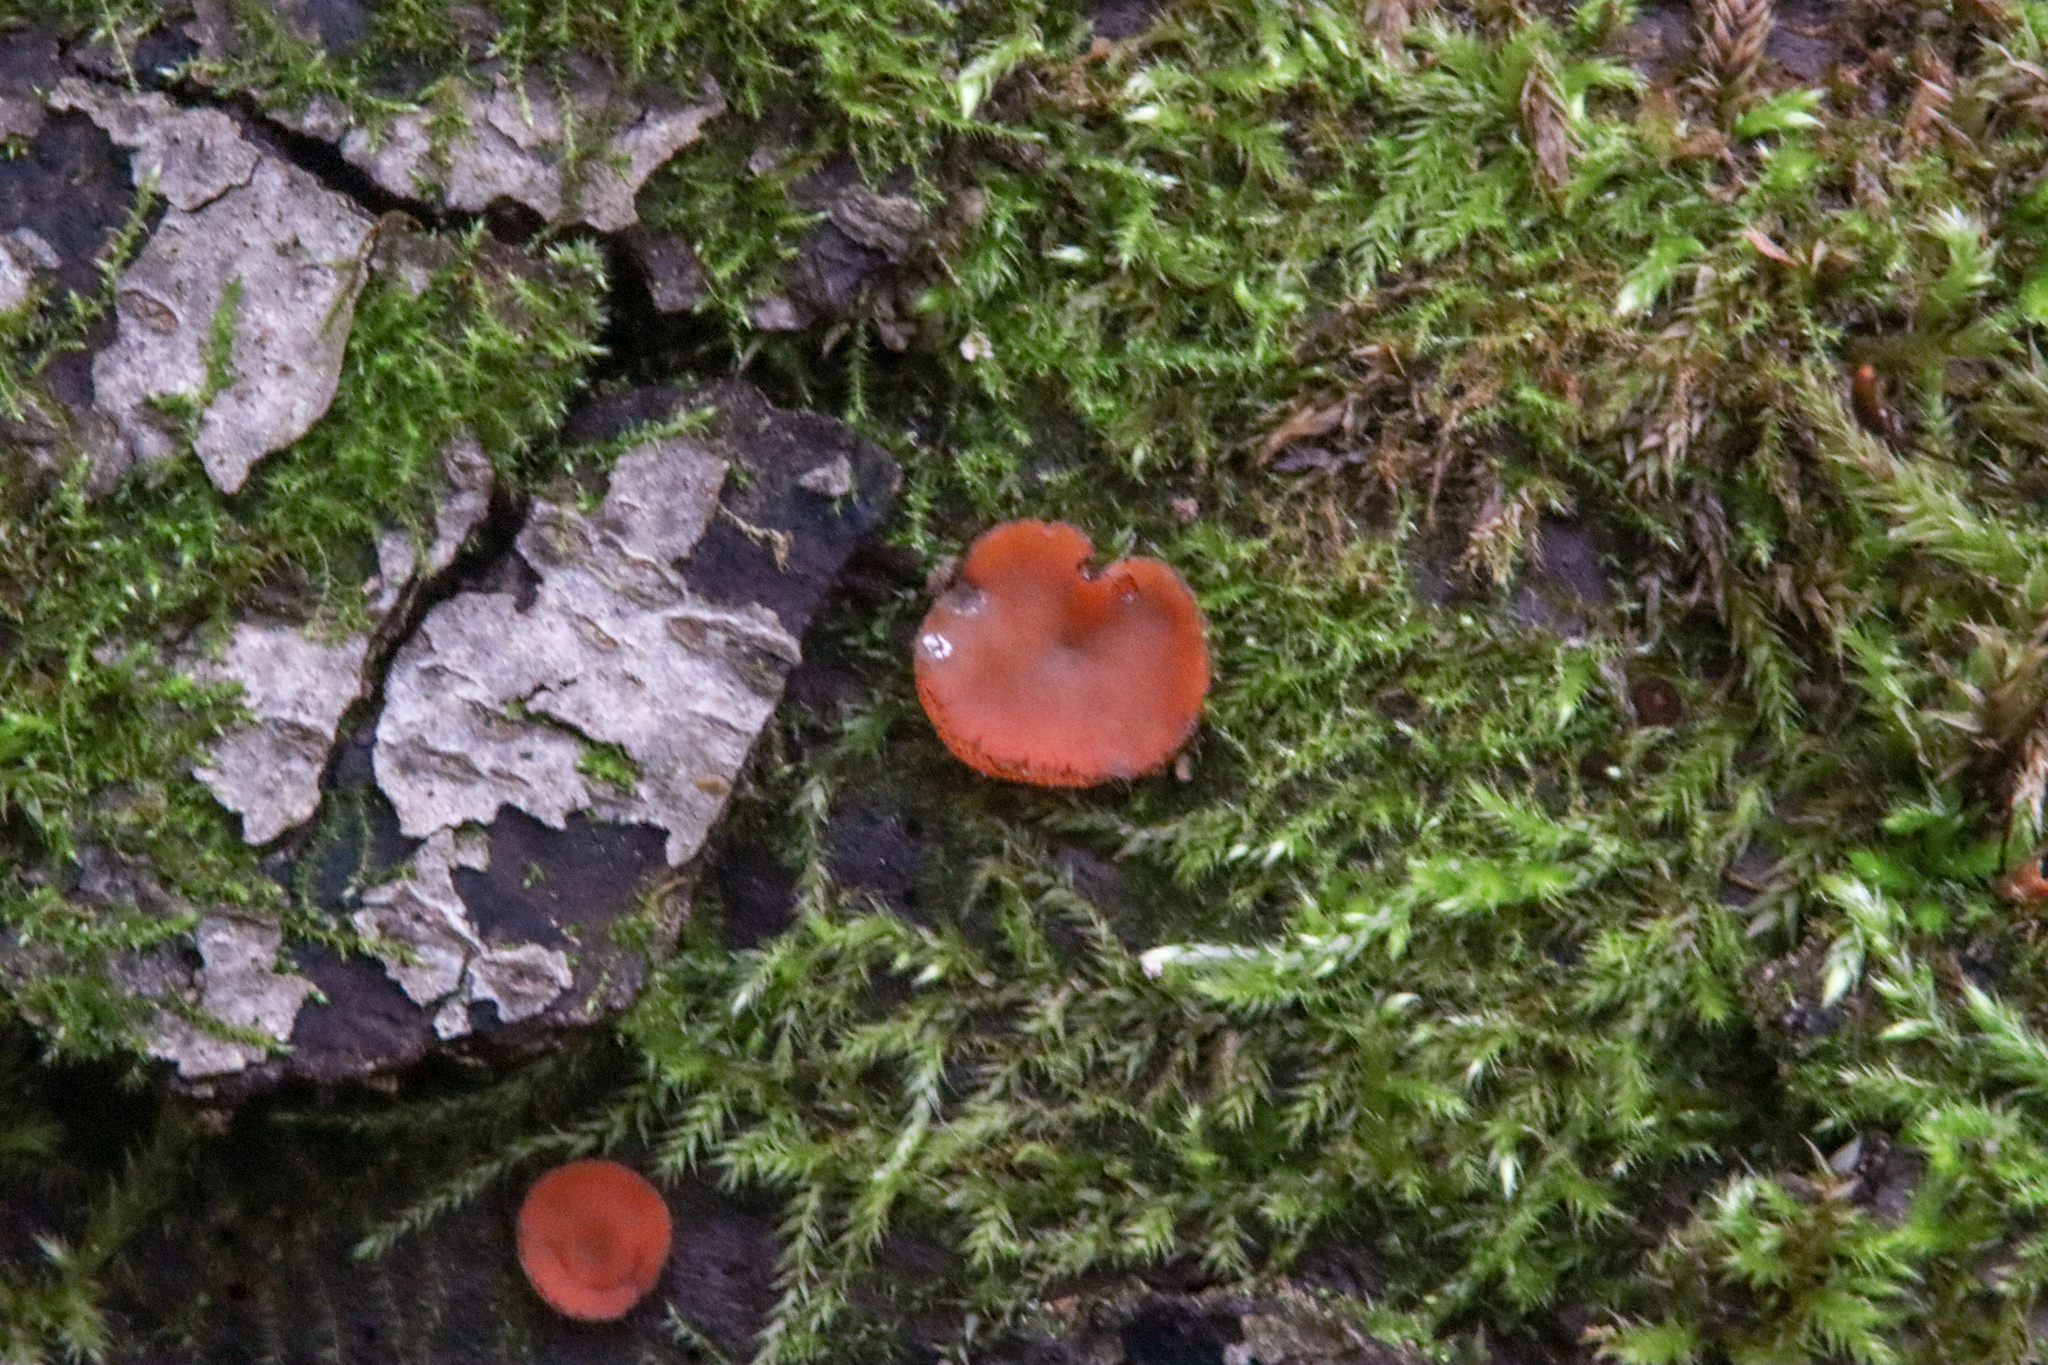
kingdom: Fungi
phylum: Ascomycota
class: Pezizomycetes
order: Pezizales
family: Pyronemataceae
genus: Scutellinia
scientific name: Scutellinia
